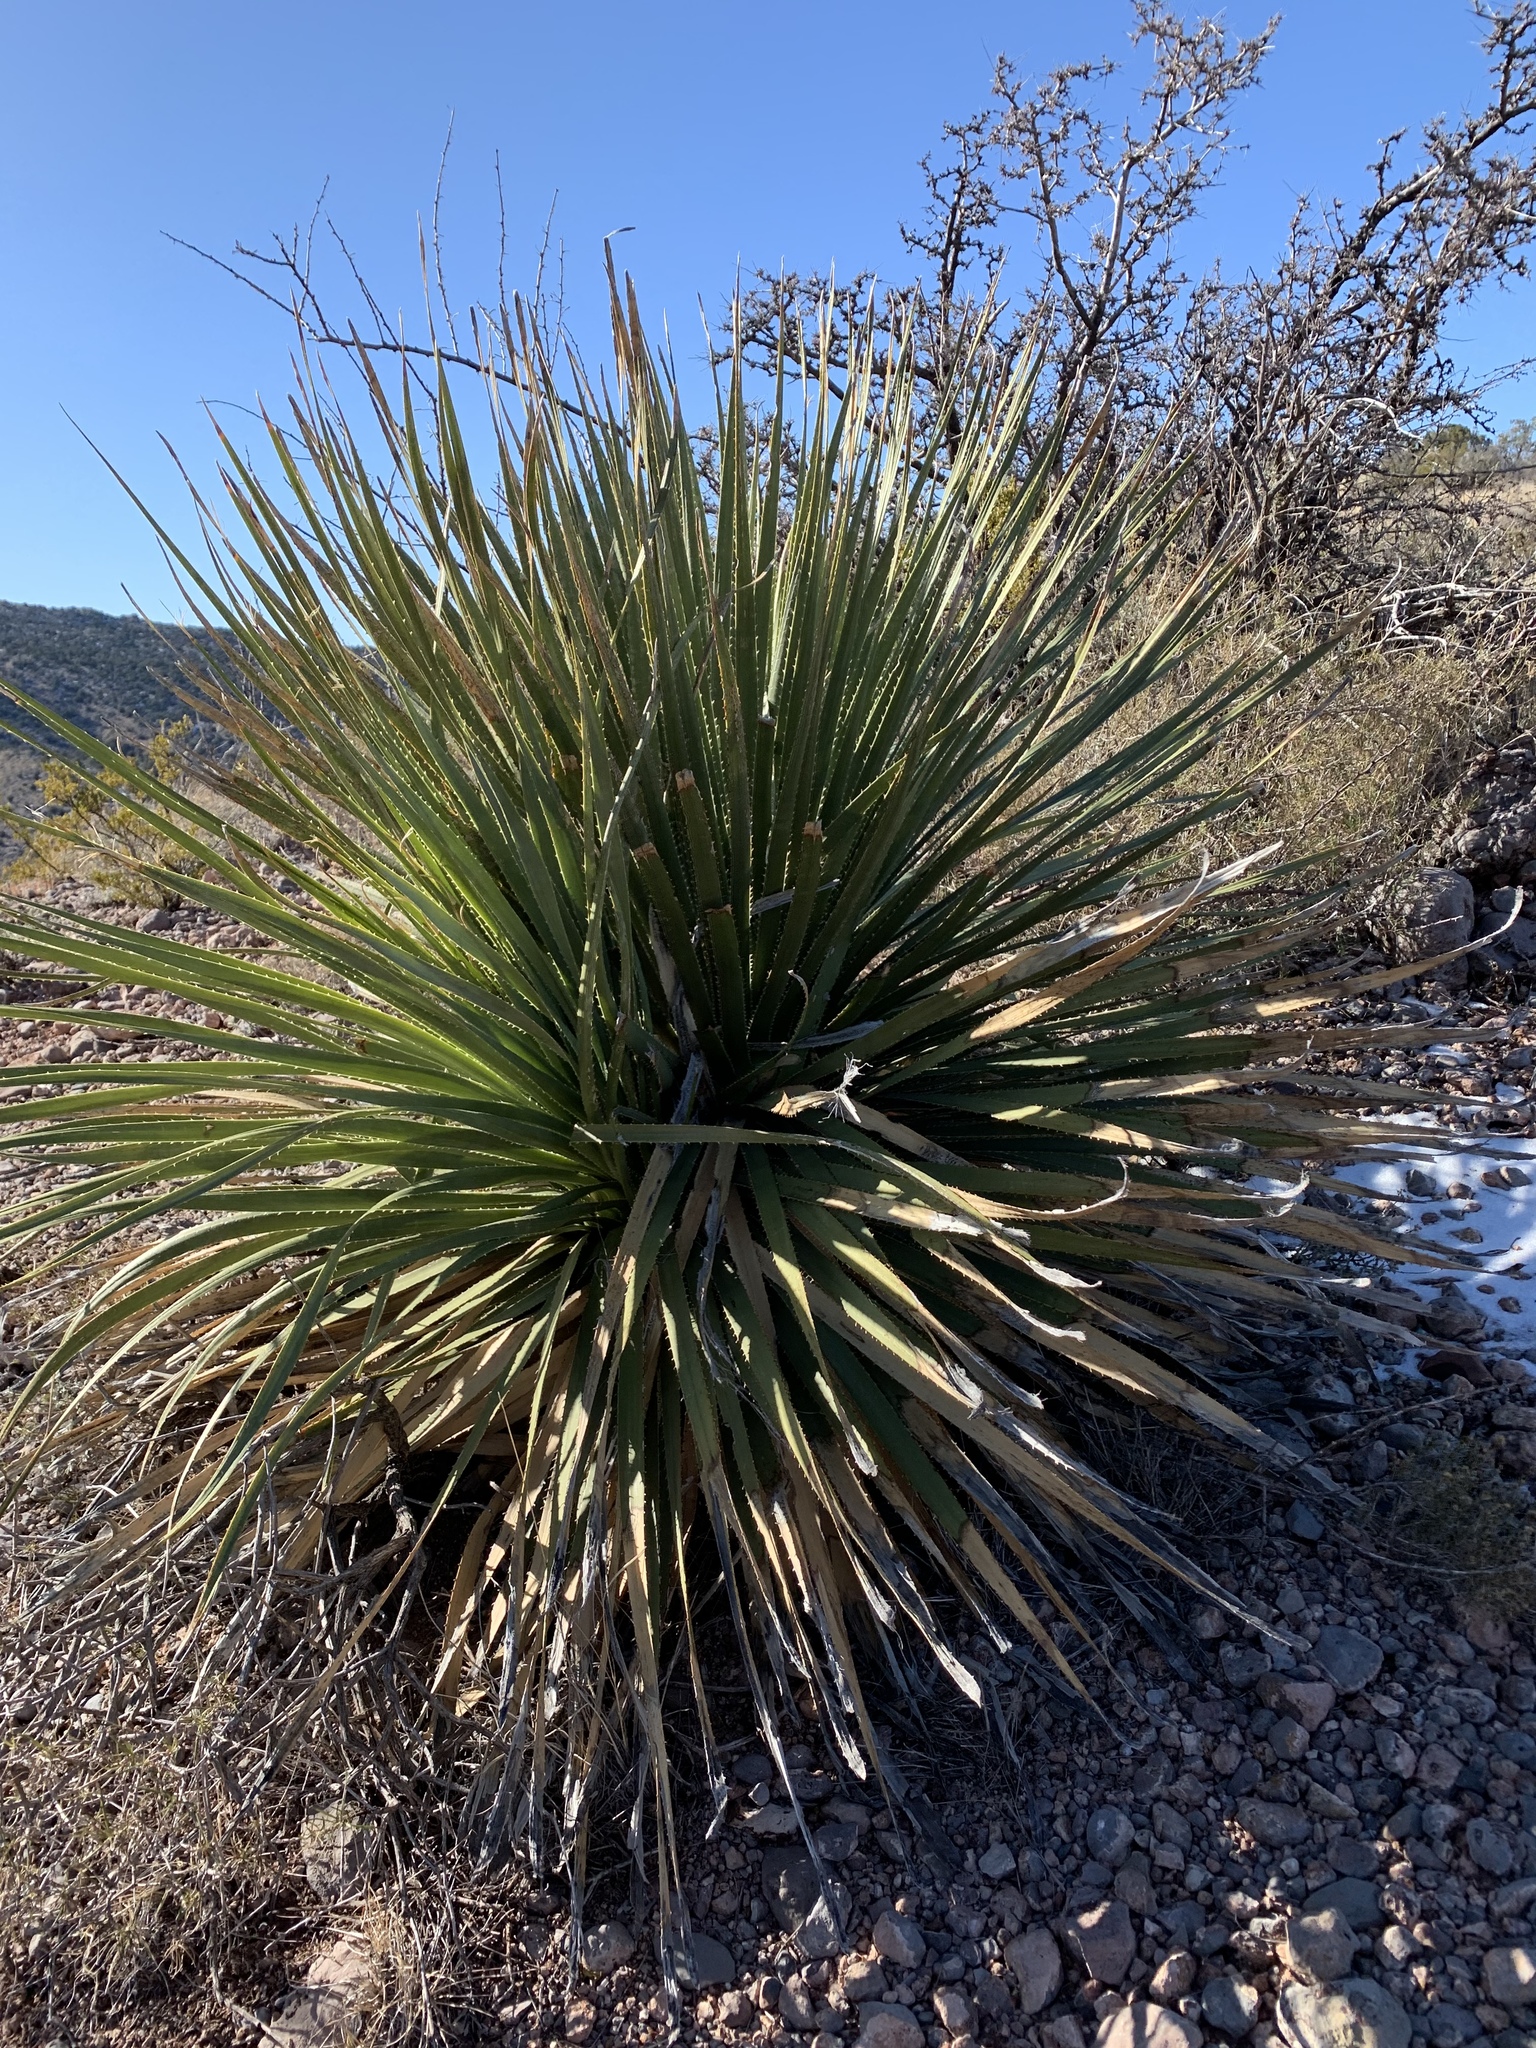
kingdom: Plantae
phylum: Tracheophyta
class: Liliopsida
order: Asparagales
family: Asparagaceae
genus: Dasylirion
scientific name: Dasylirion wheeleri
